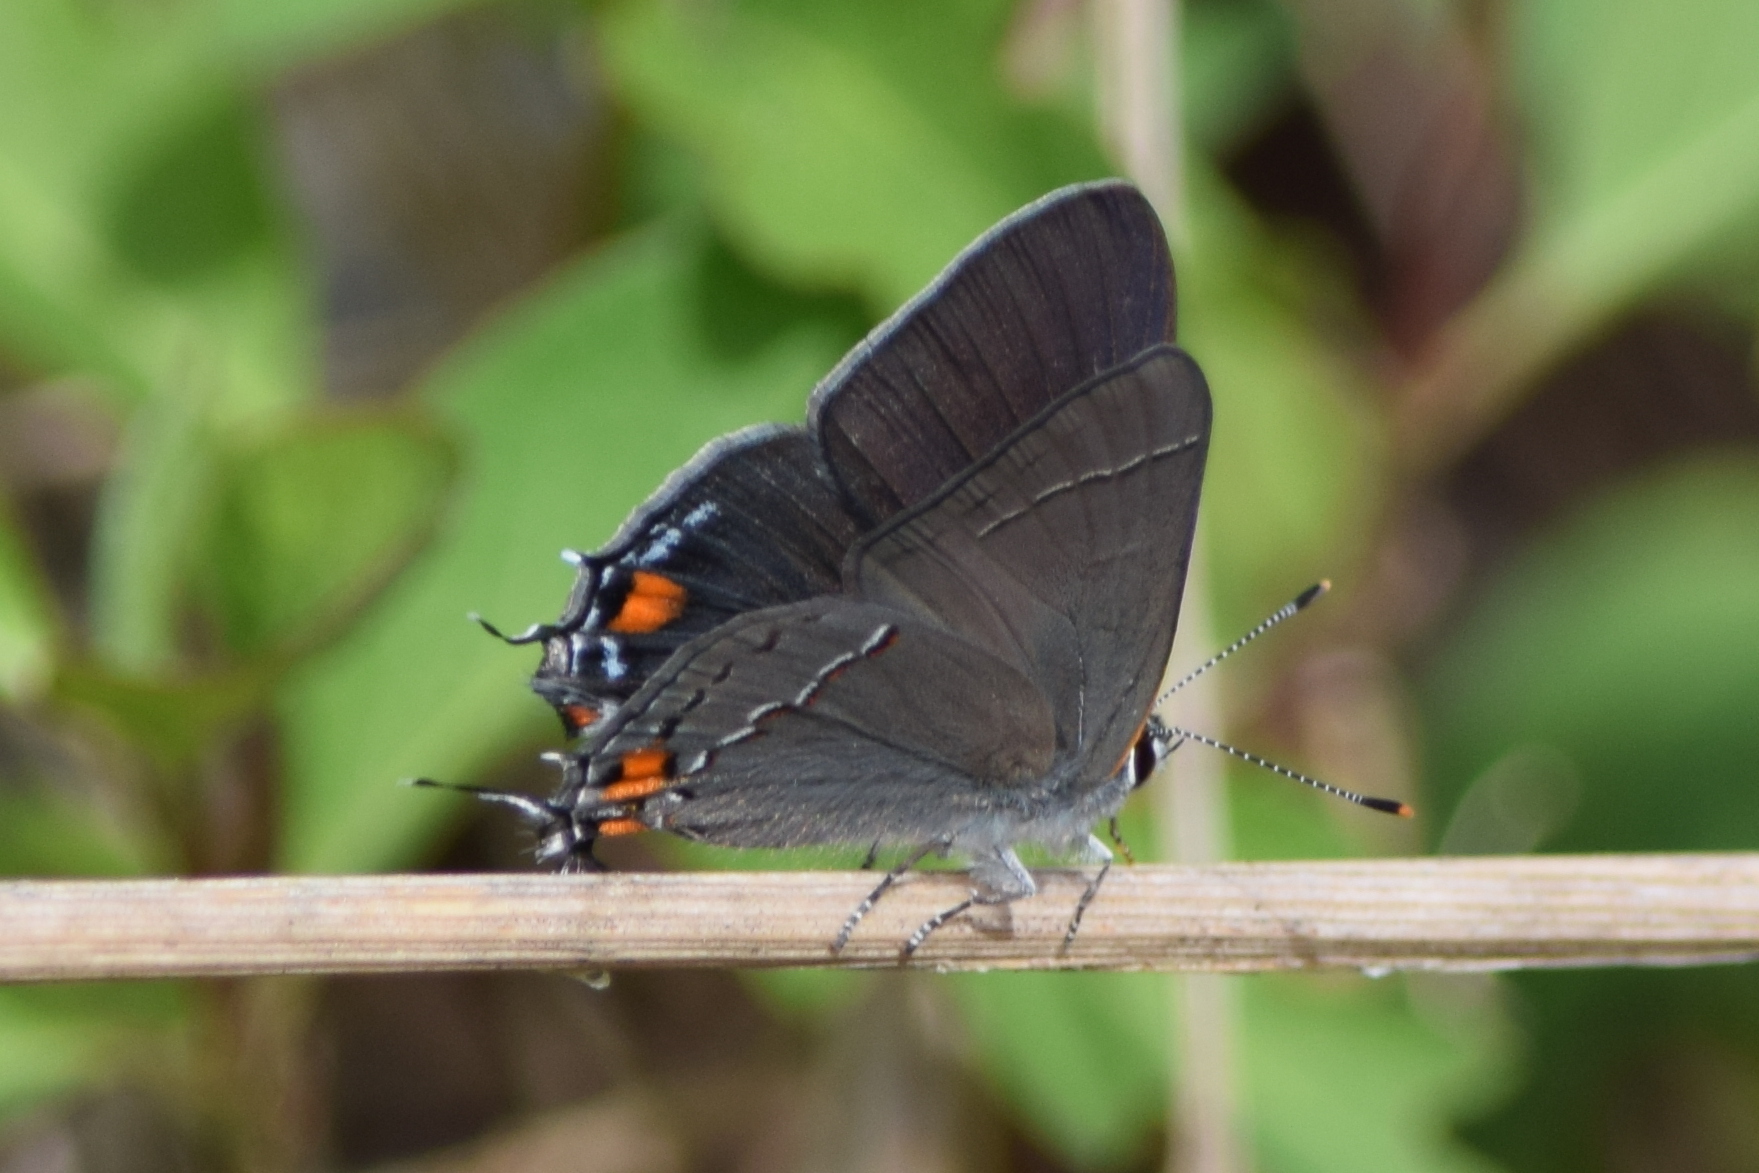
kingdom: Animalia
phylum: Arthropoda
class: Insecta
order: Lepidoptera
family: Lycaenidae
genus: Strymon
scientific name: Strymon melinus
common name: Gray hairstreak
